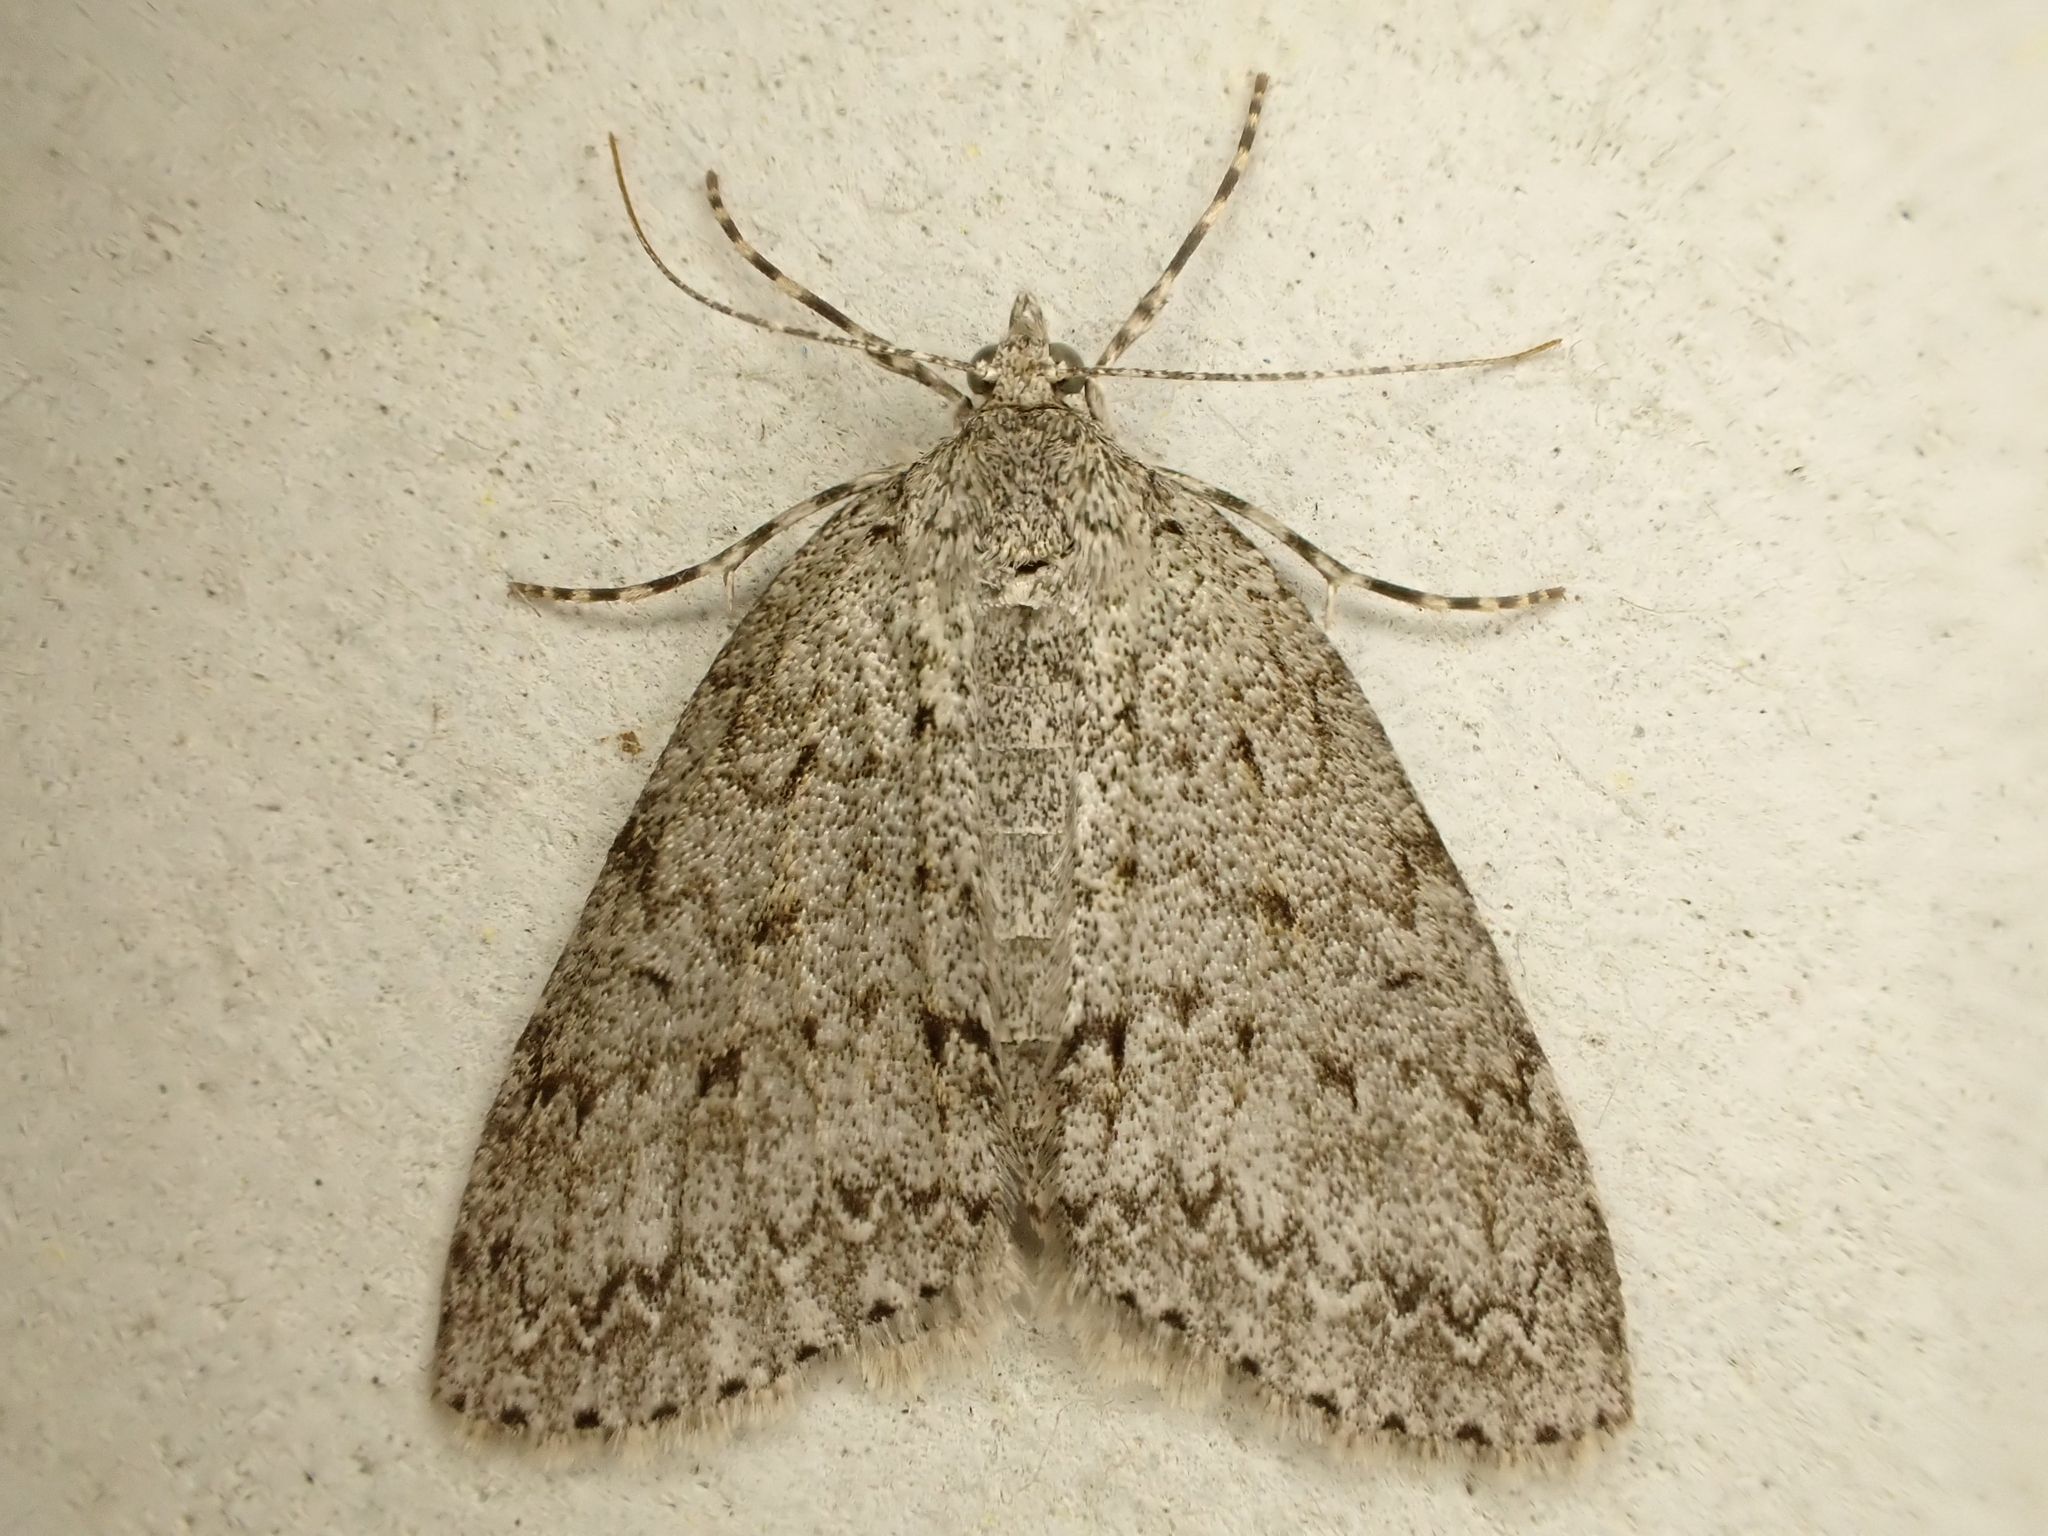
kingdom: Animalia
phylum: Arthropoda
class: Insecta
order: Lepidoptera
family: Geometridae
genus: Pseudocoremia
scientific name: Pseudocoremia fenerata
